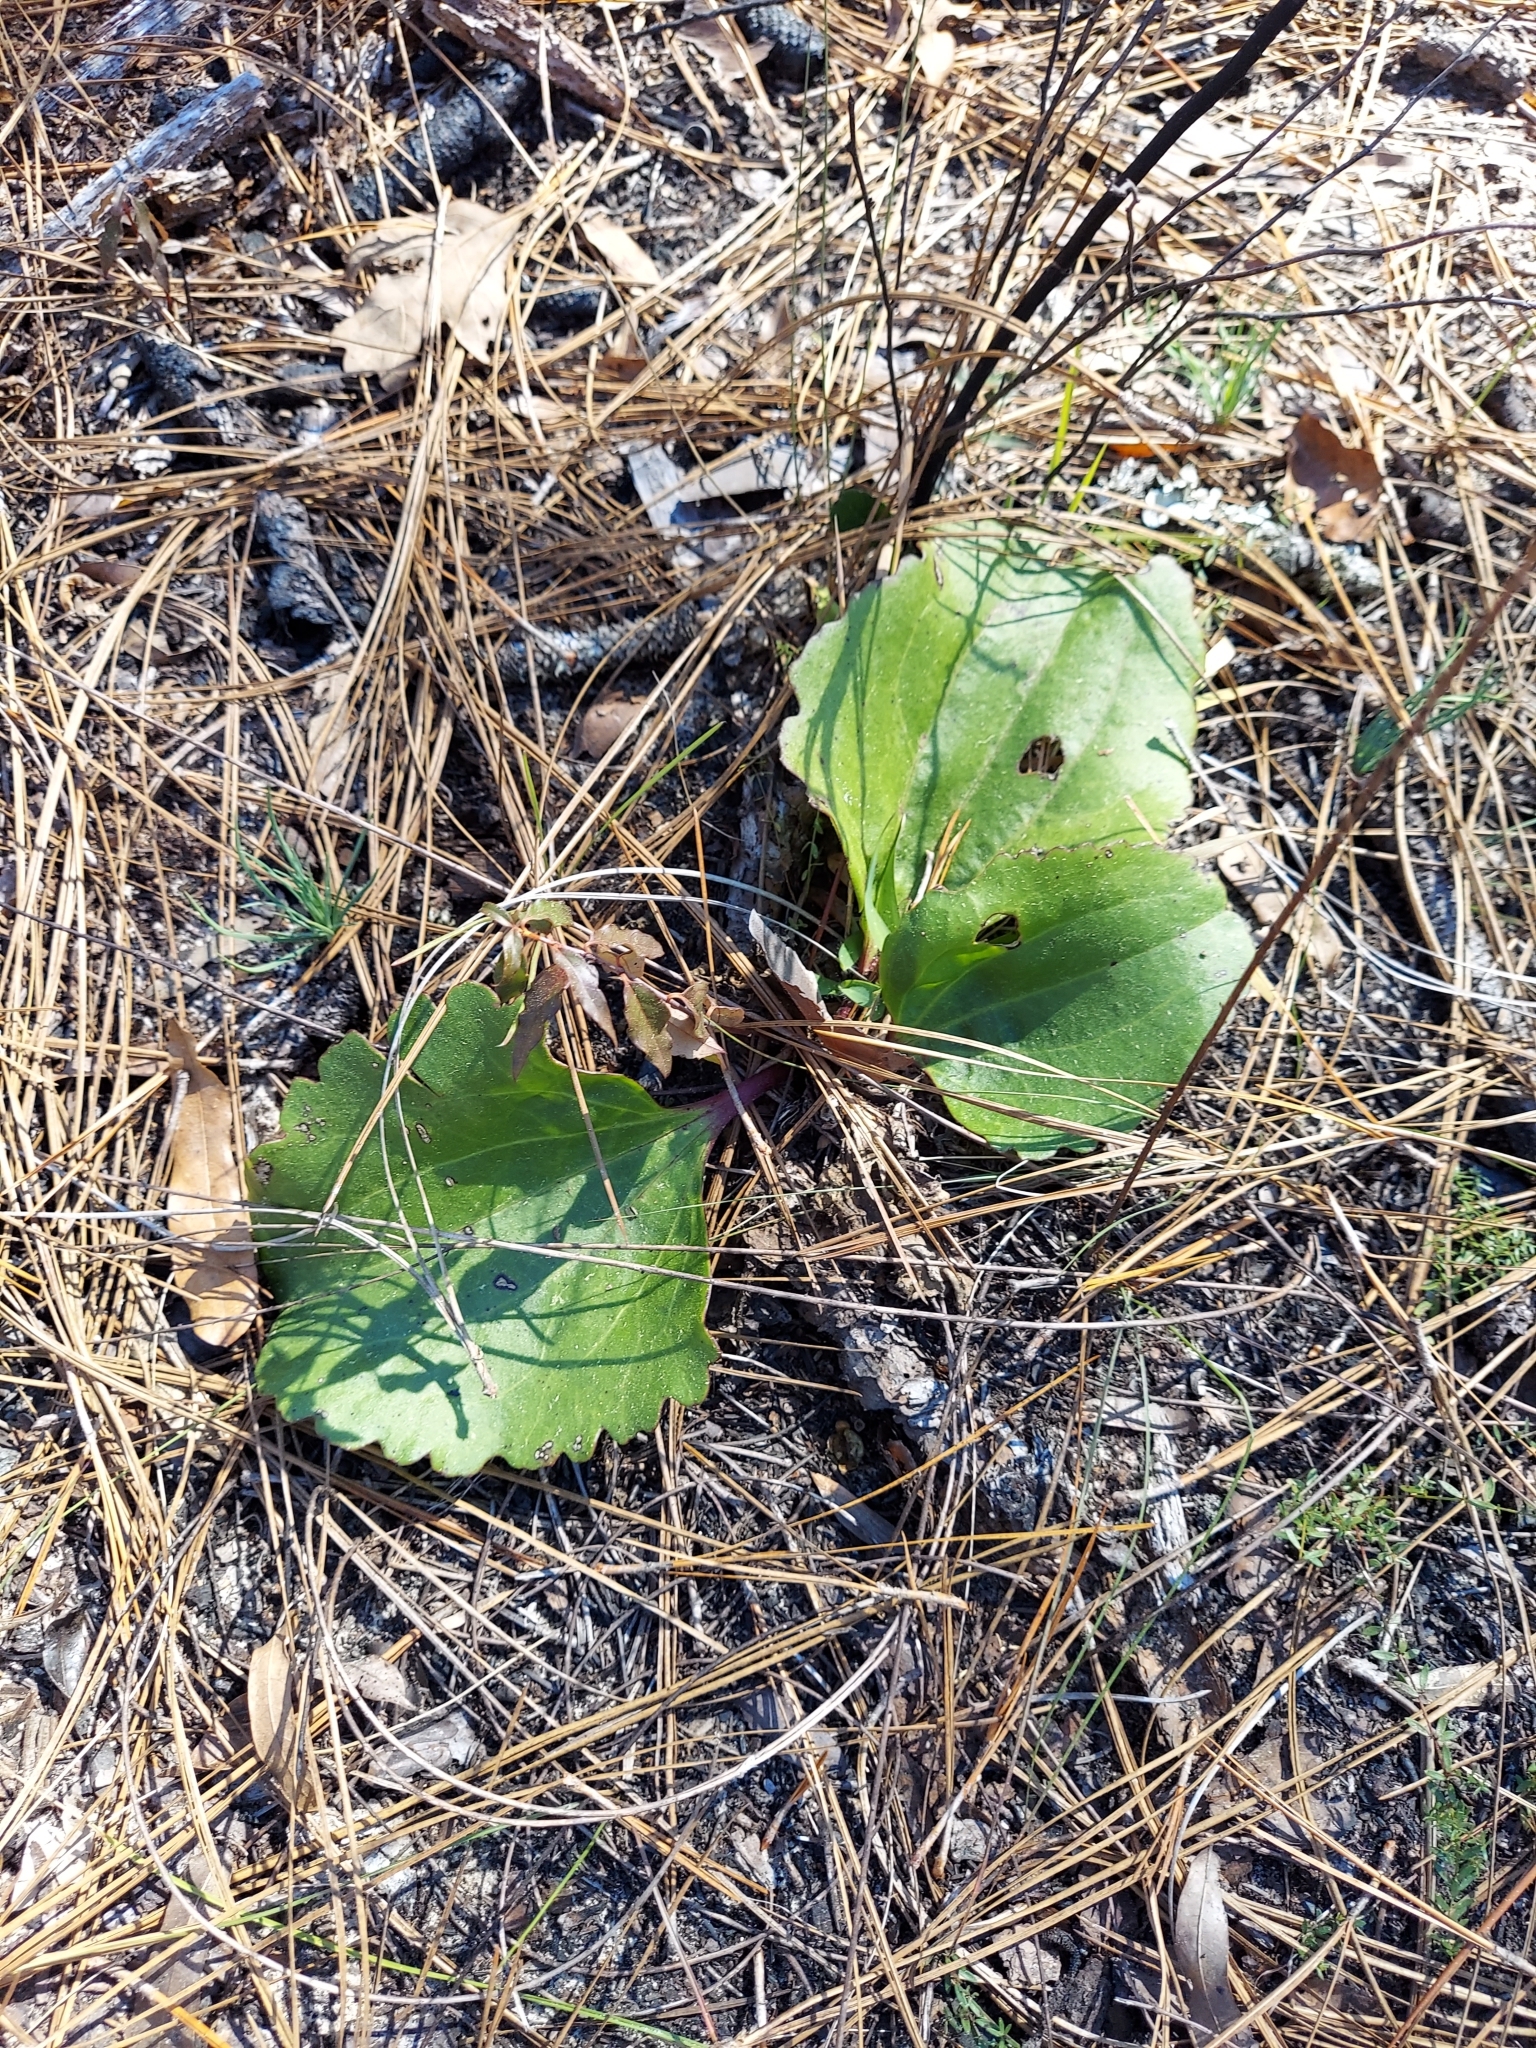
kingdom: Plantae
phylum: Tracheophyta
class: Magnoliopsida
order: Asterales
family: Asteraceae
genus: Arnoglossum
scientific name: Arnoglossum floridanum
